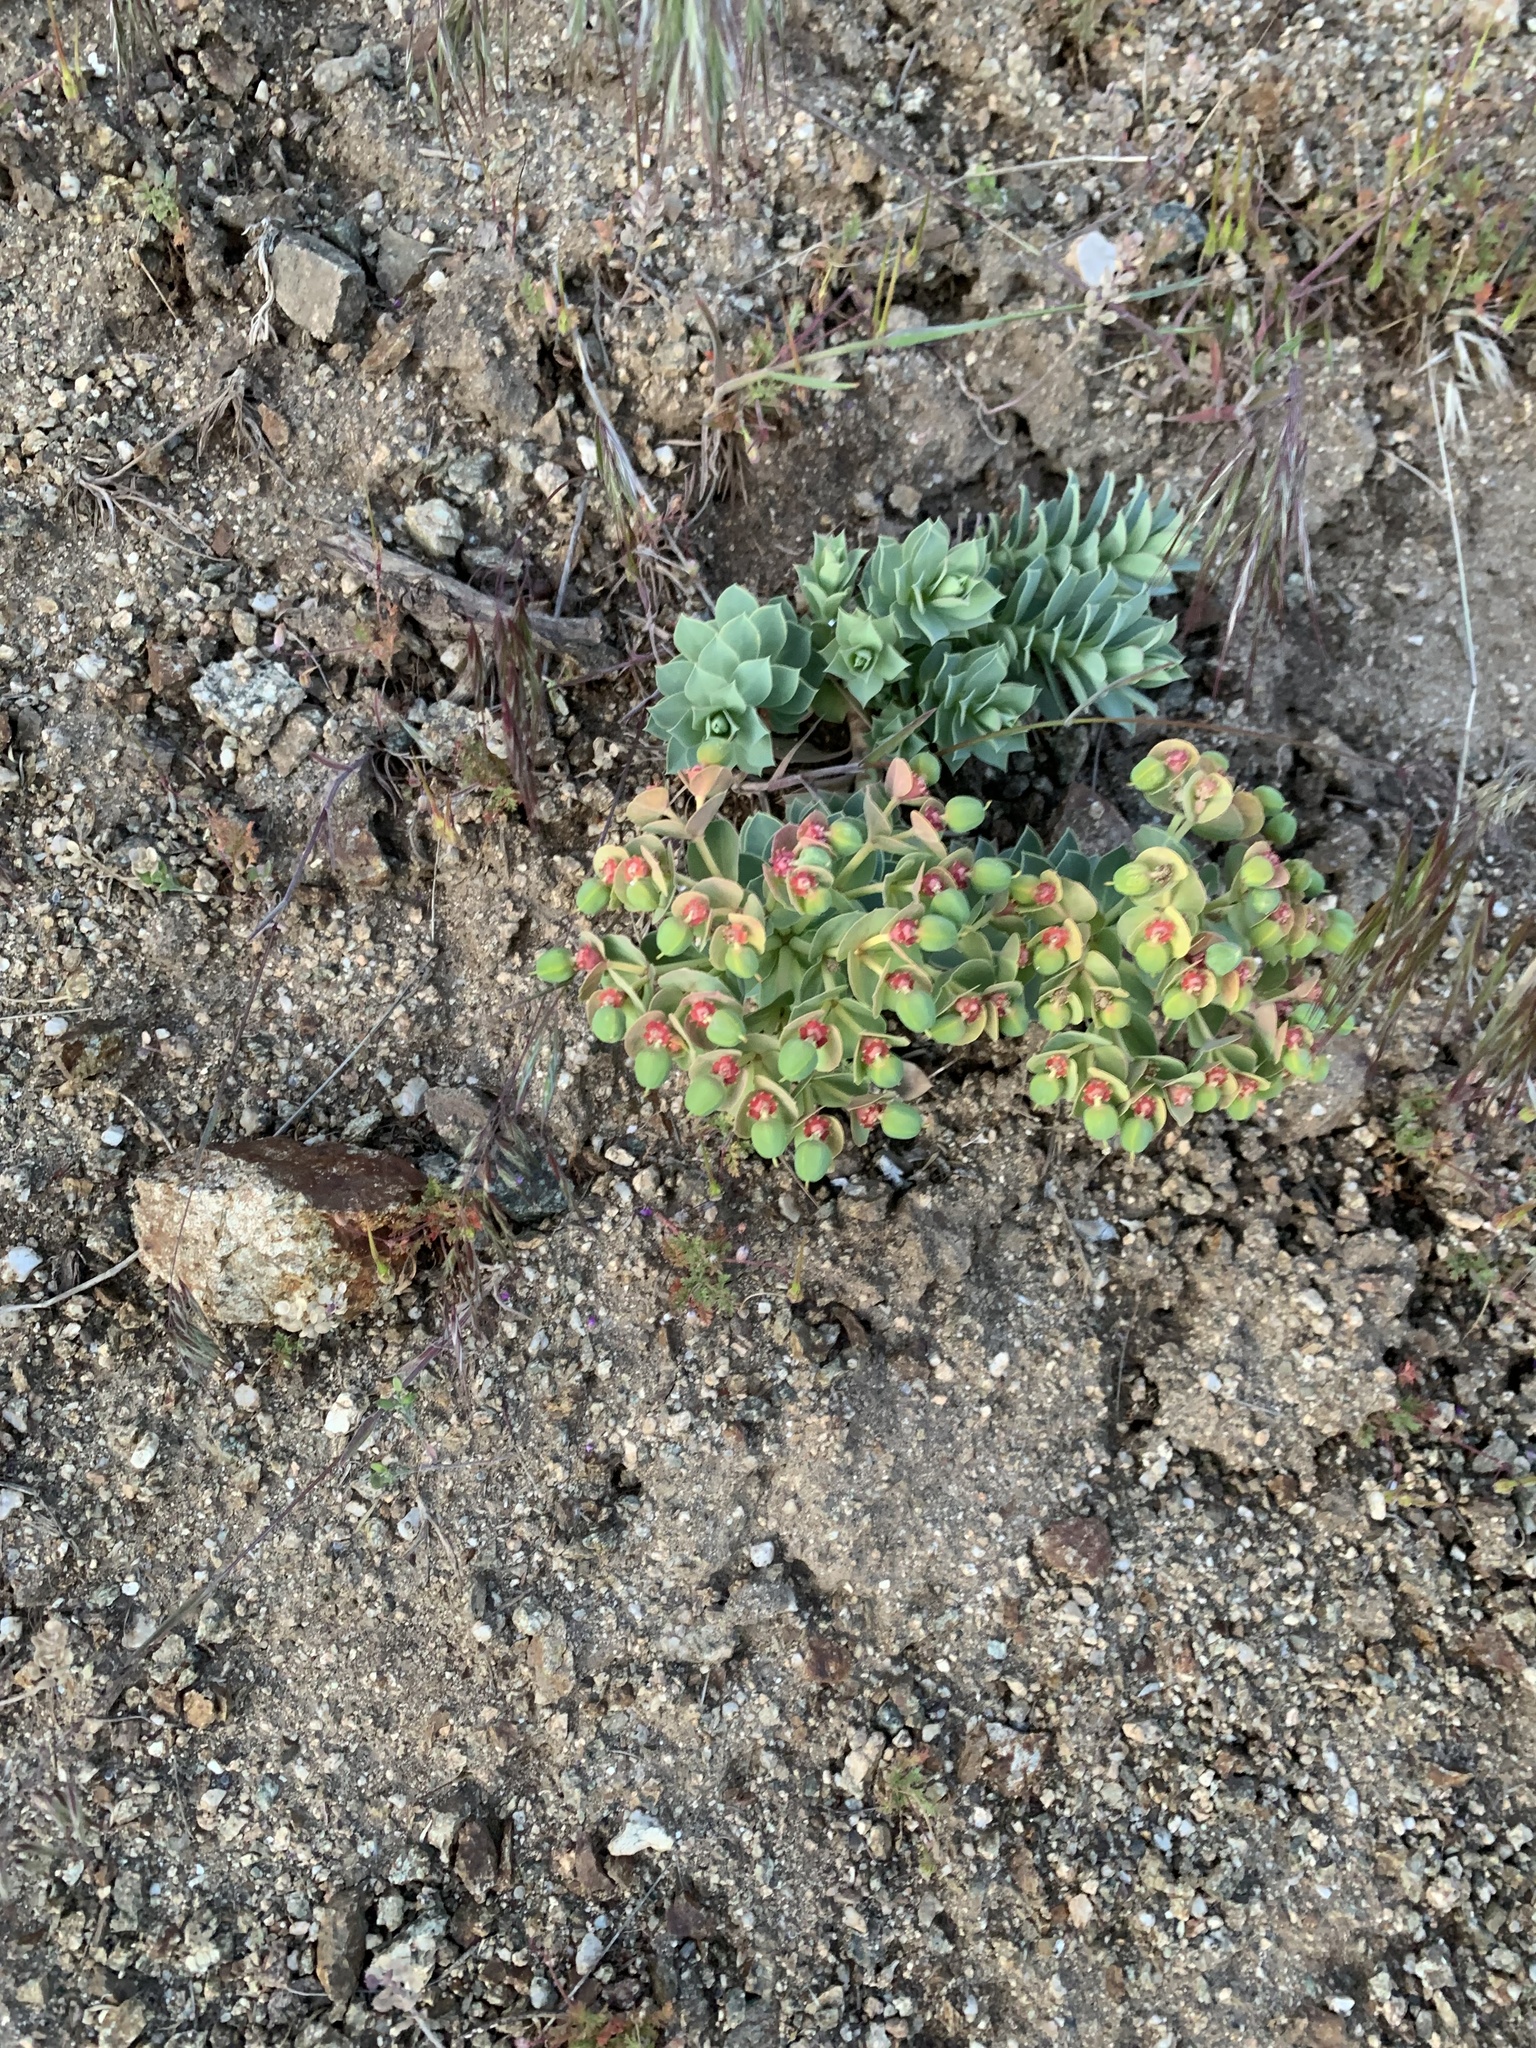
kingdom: Plantae
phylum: Tracheophyta
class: Magnoliopsida
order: Malpighiales
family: Euphorbiaceae
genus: Euphorbia
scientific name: Euphorbia myrsinites
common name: Myrtle spurge
